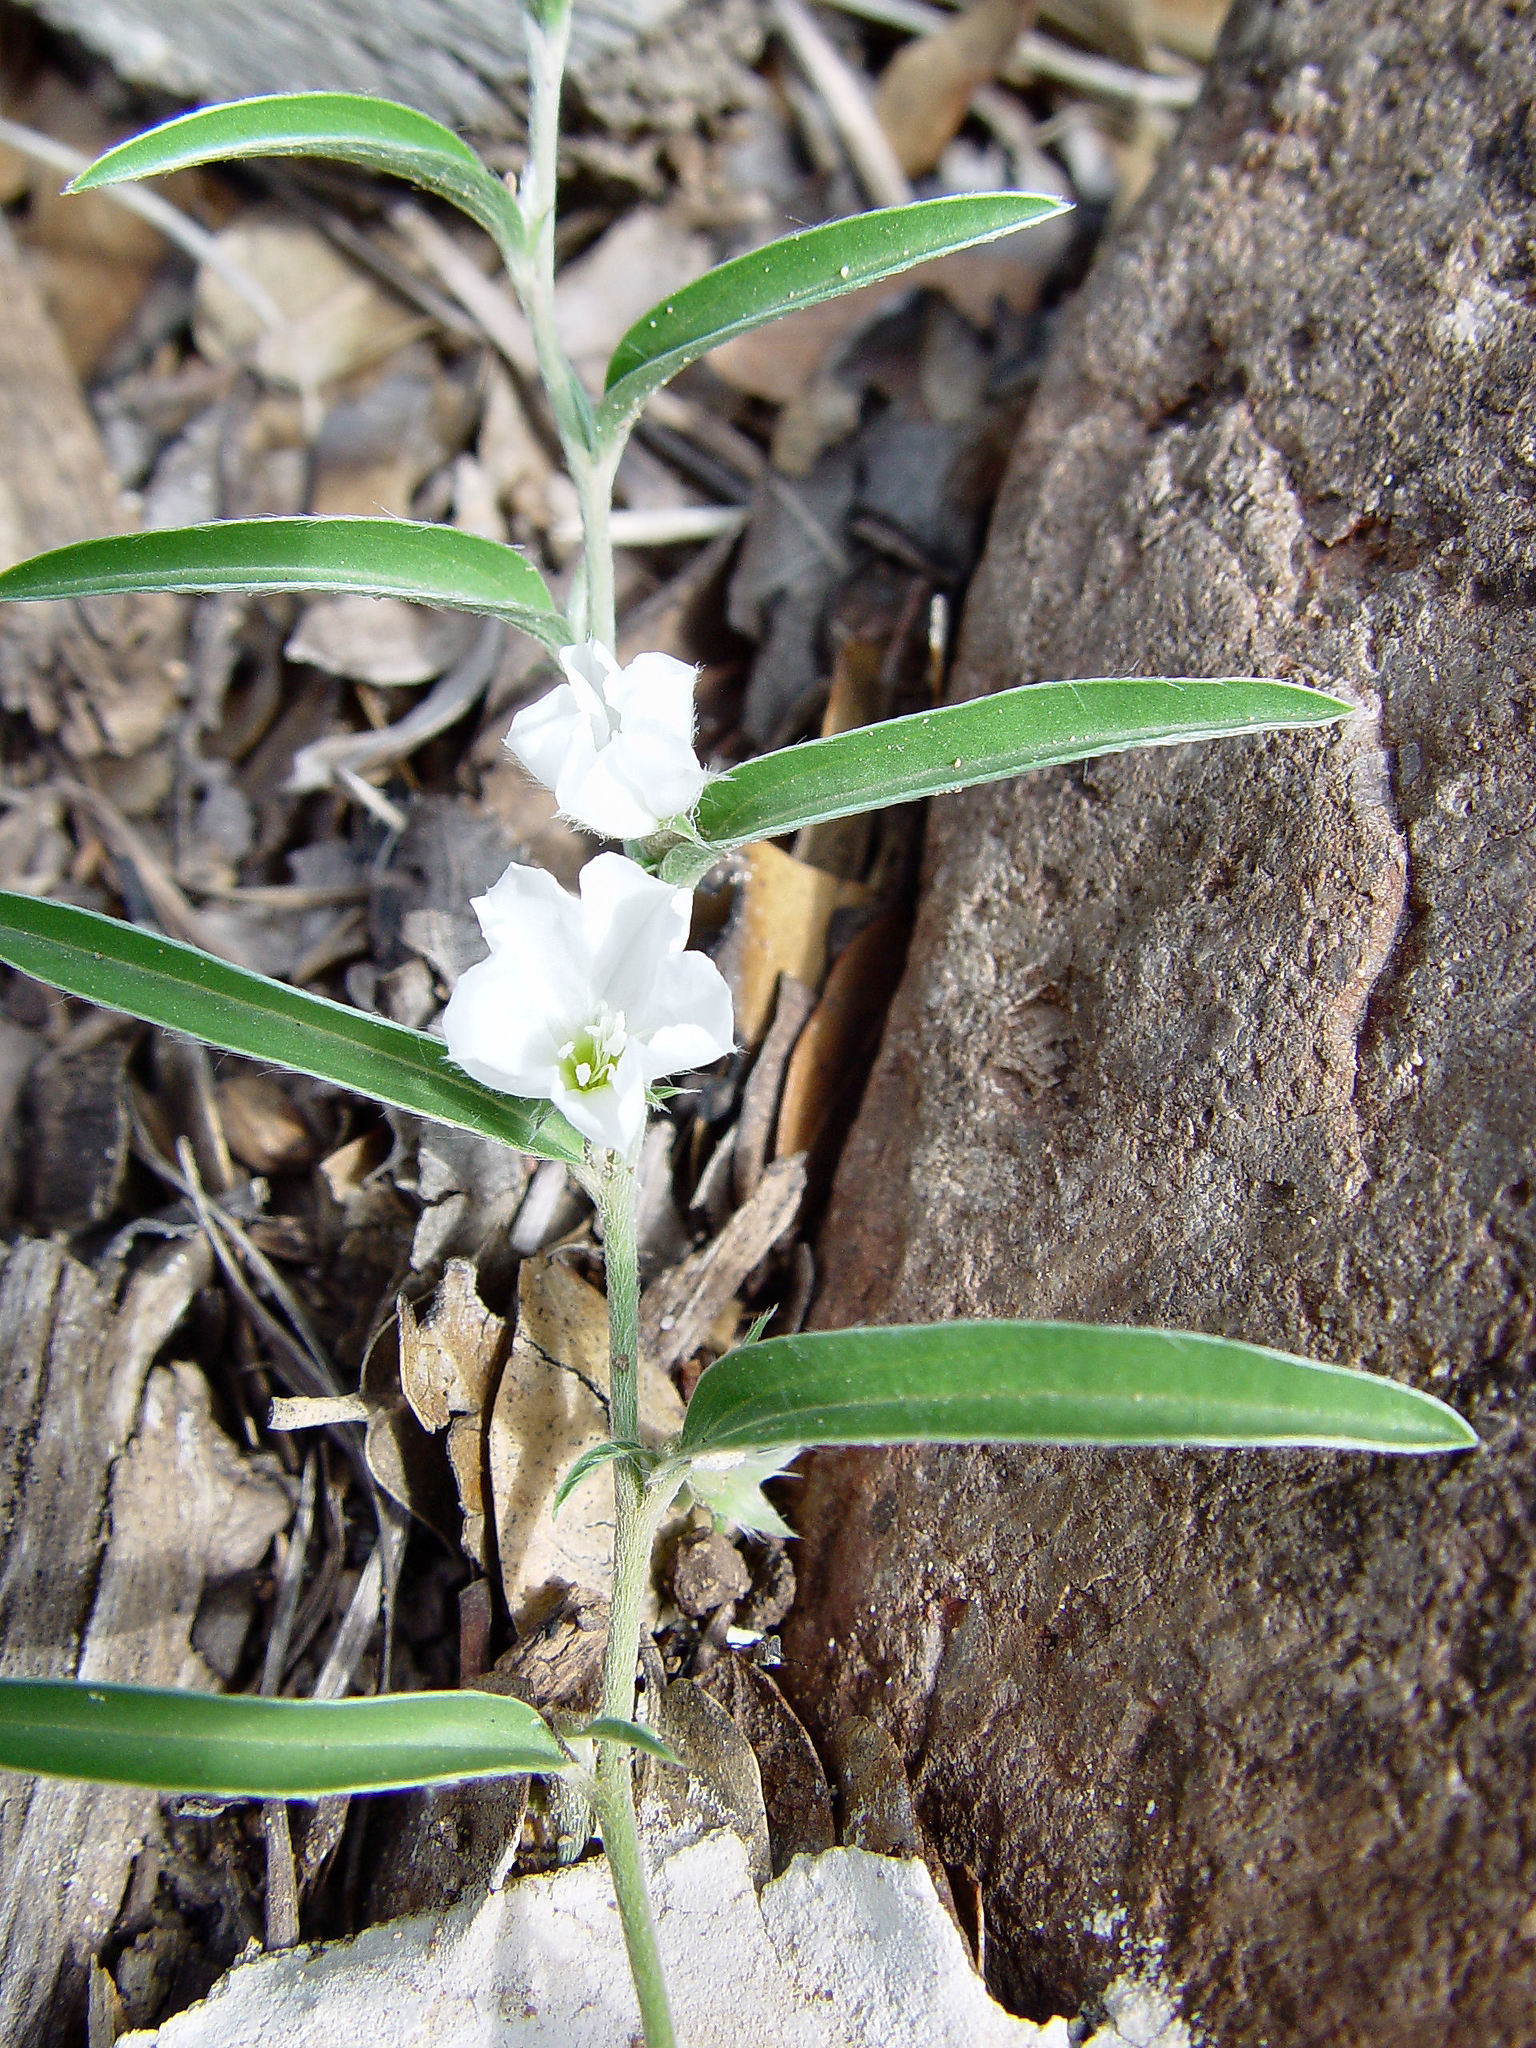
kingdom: Plantae
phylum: Tracheophyta
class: Magnoliopsida
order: Solanales
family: Convolvulaceae
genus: Evolvulus
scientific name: Evolvulus sericeus
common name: Blue dots
